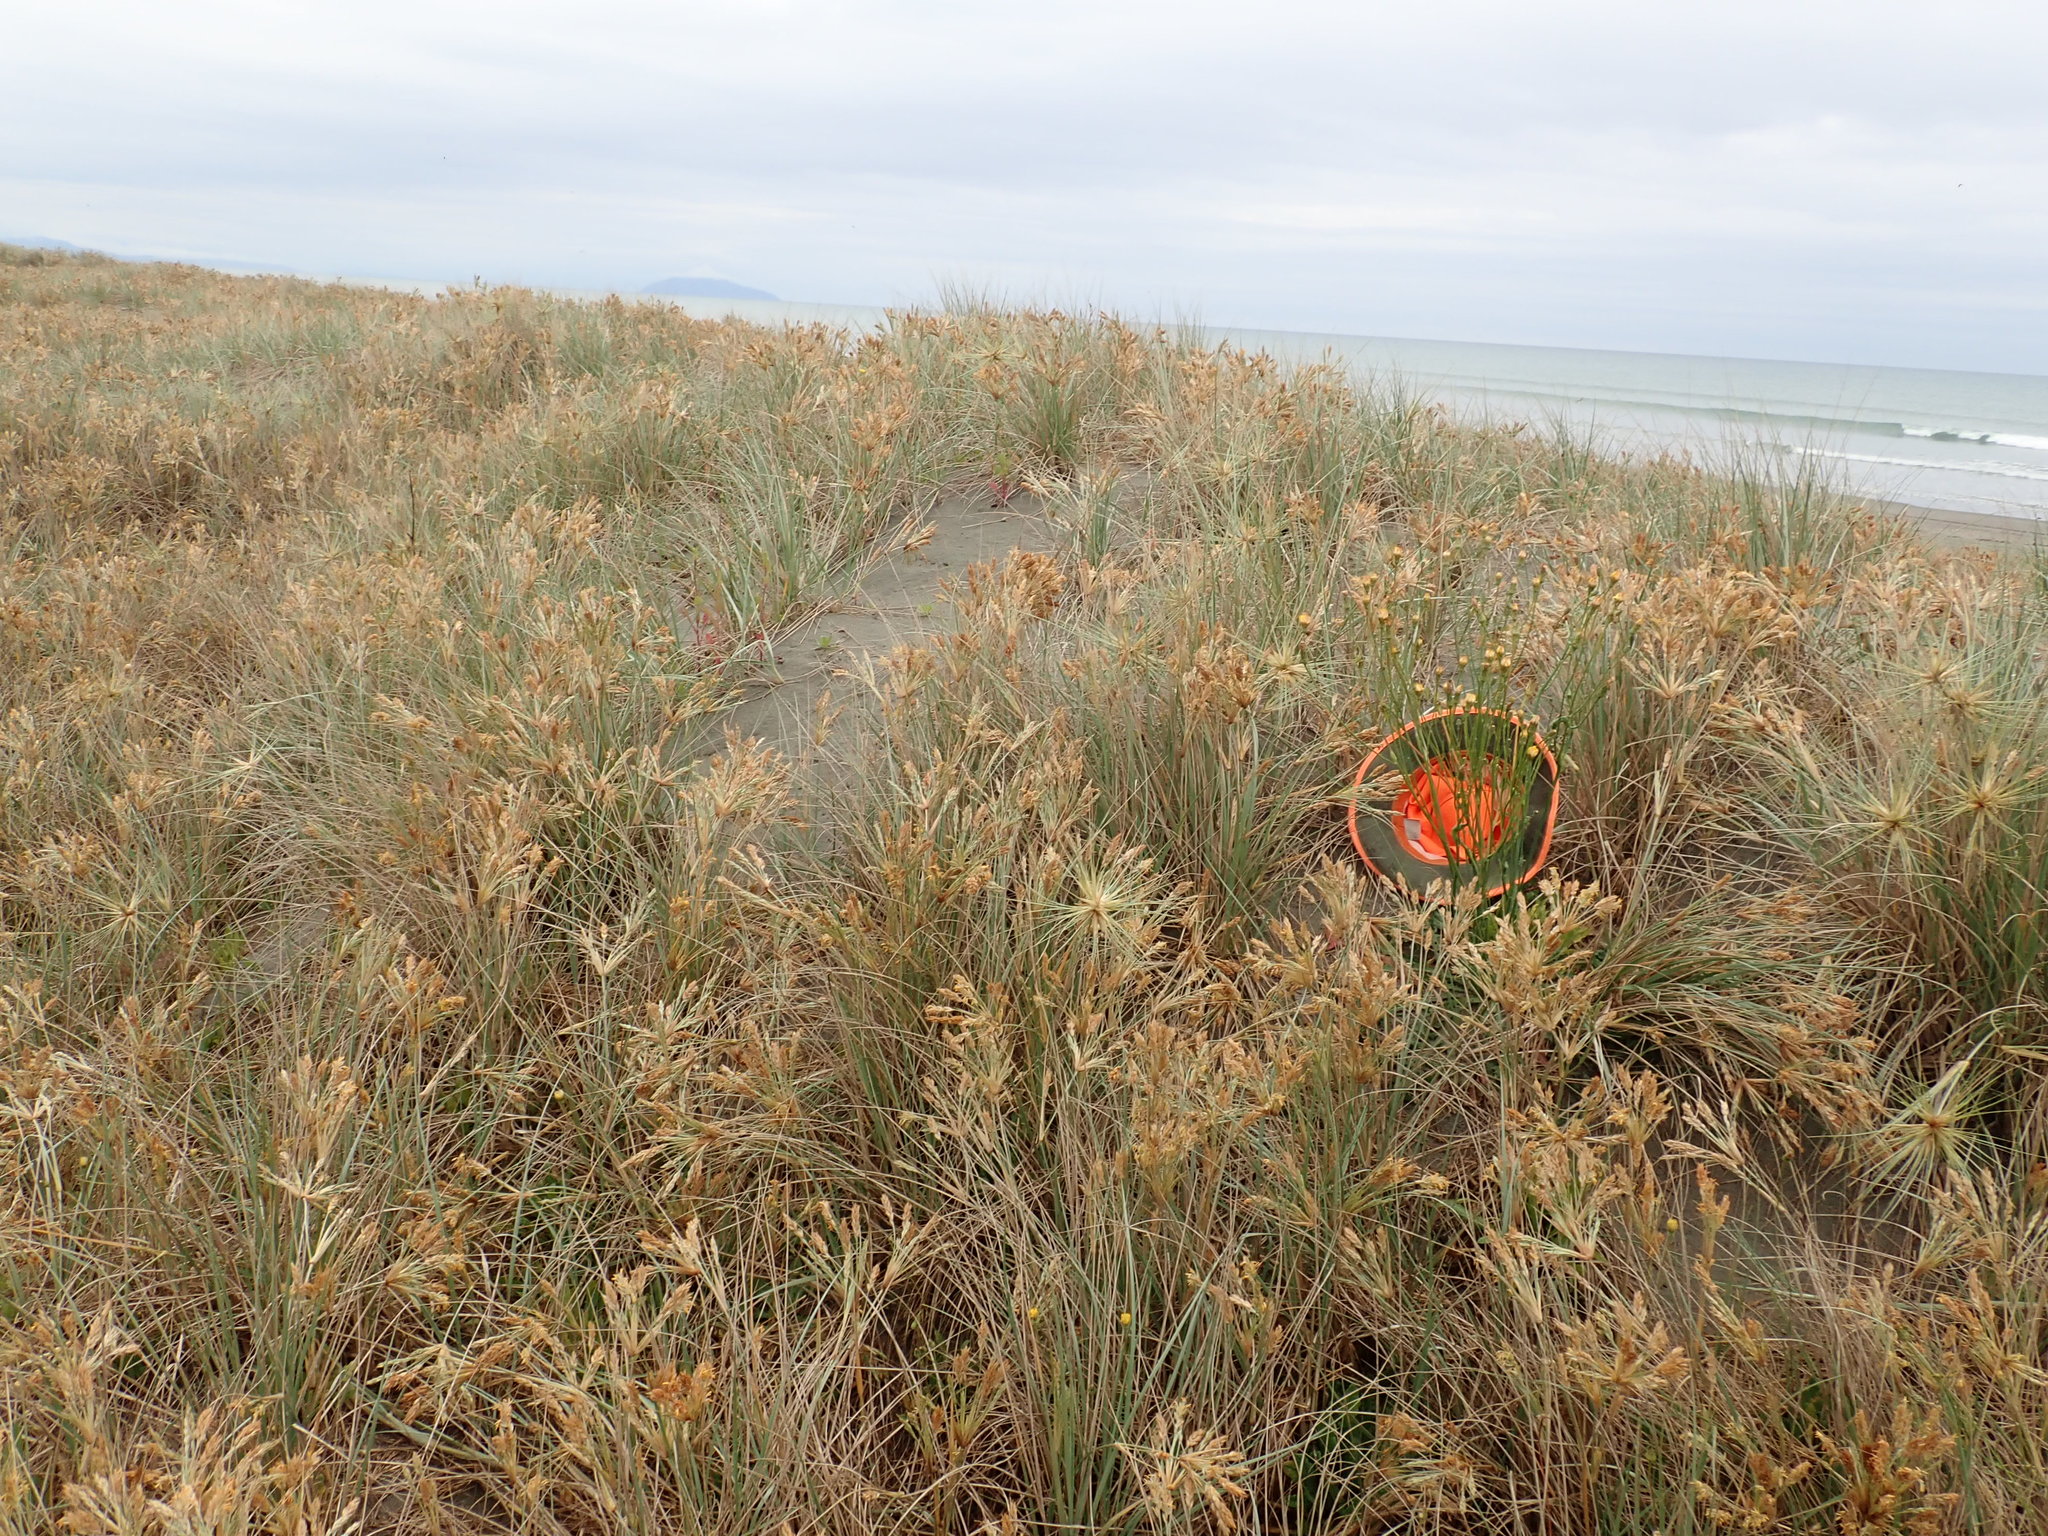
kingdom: Plantae
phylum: Tracheophyta
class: Magnoliopsida
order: Asterales
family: Asteraceae
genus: Hypochaeris
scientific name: Hypochaeris radicata
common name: Flatweed
